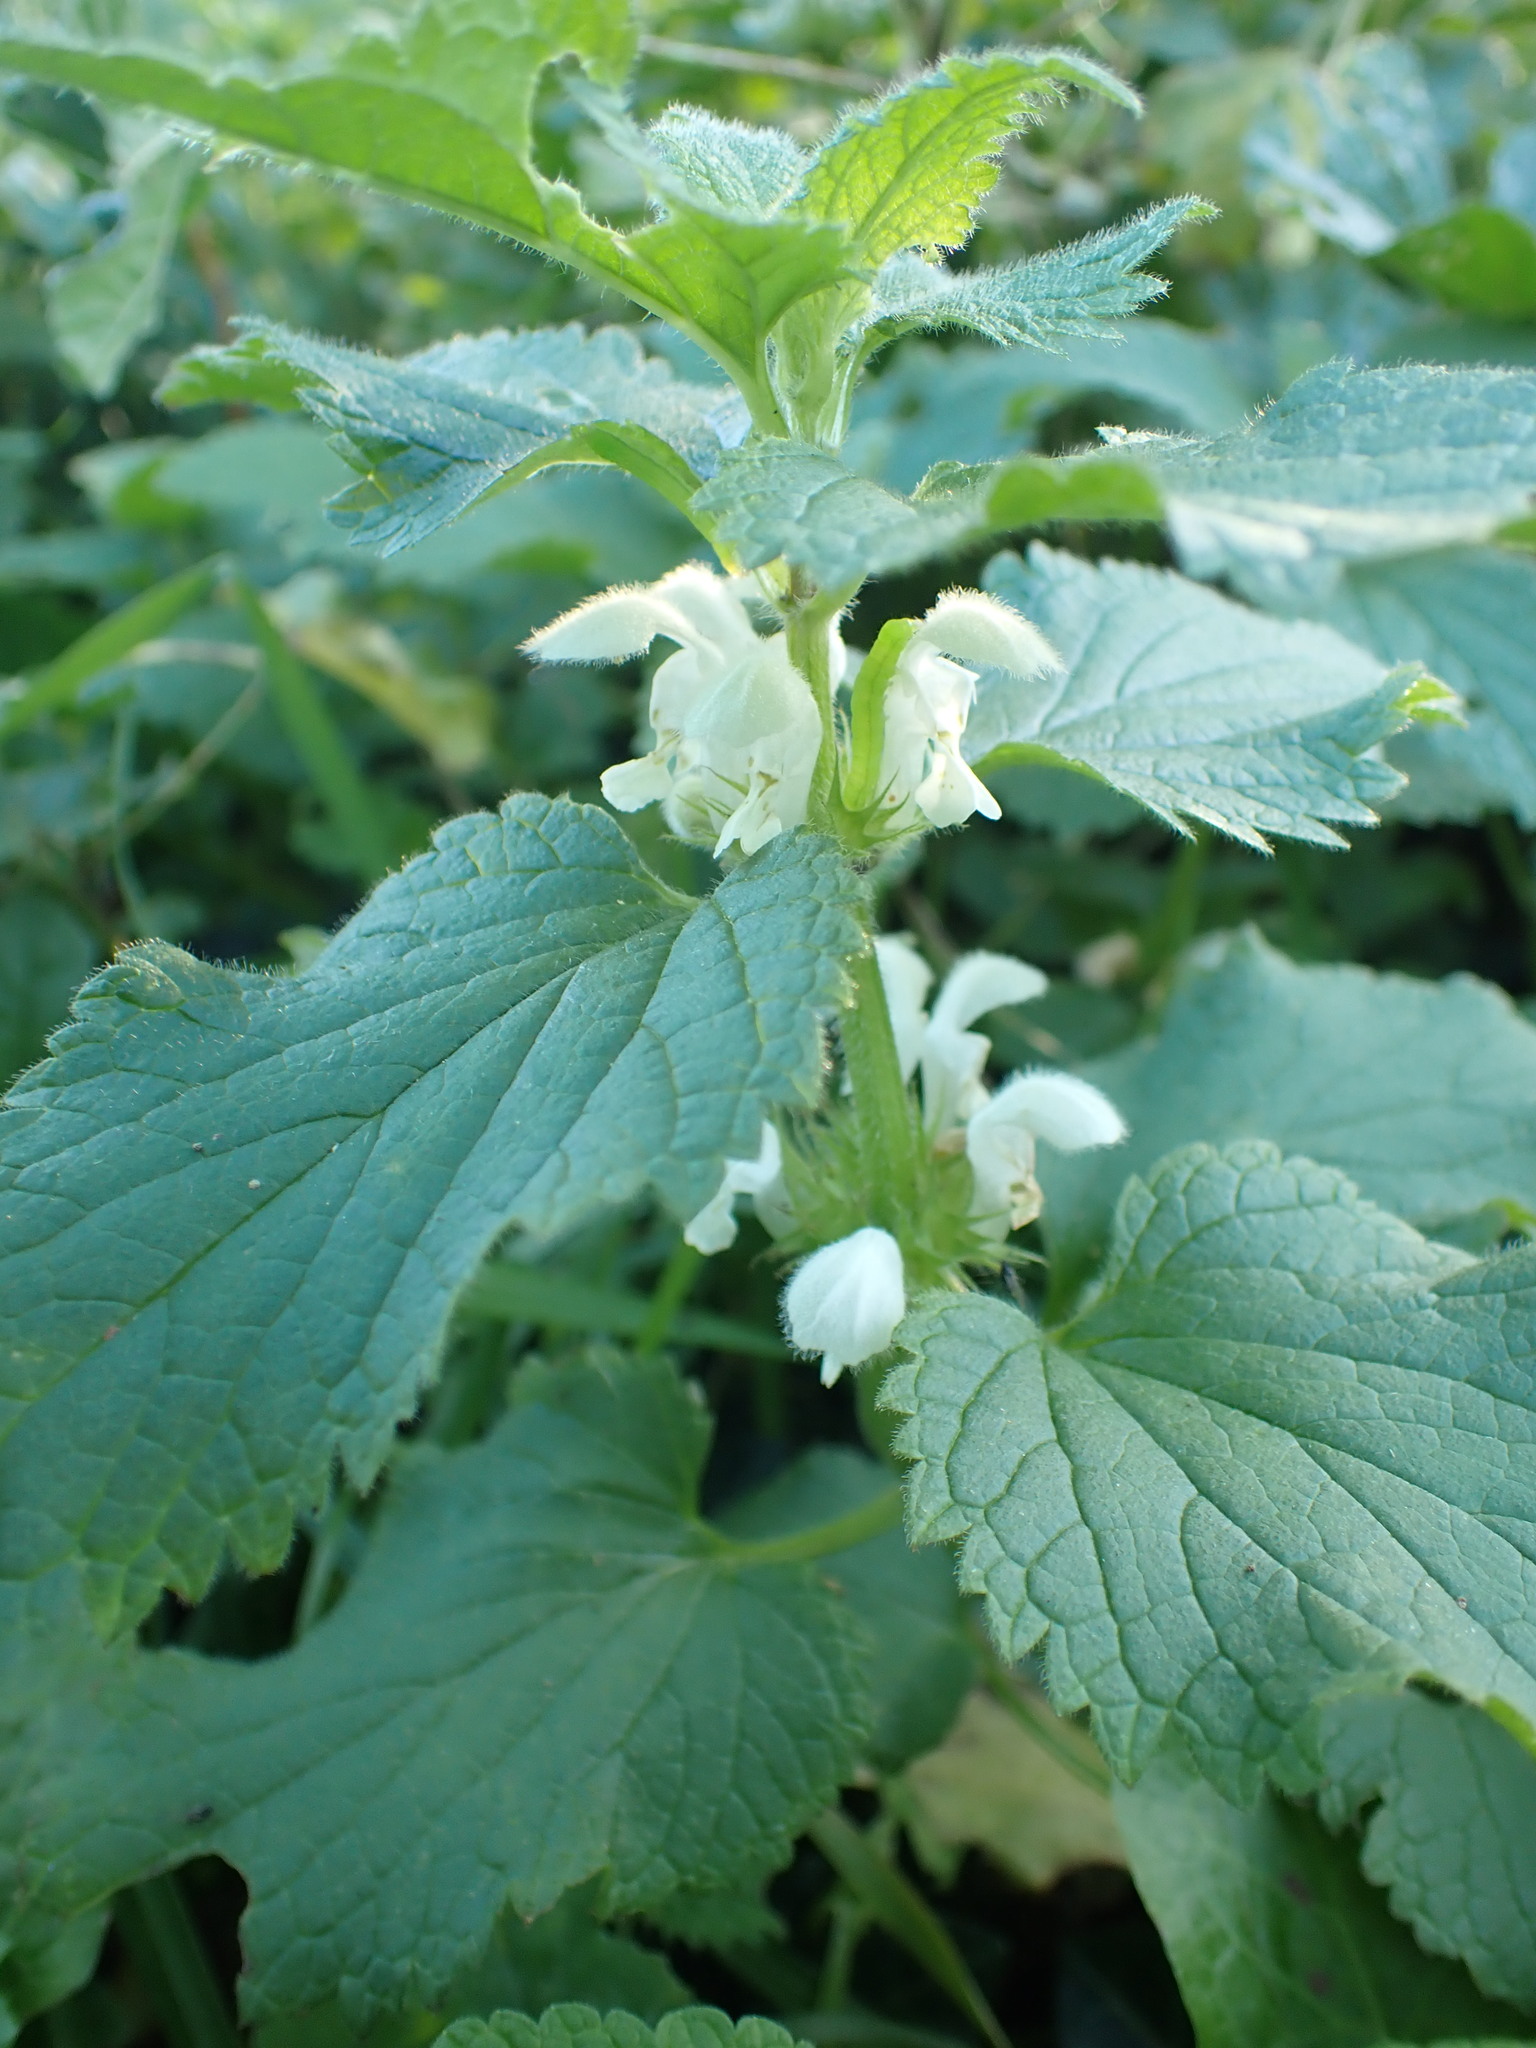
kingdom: Plantae
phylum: Tracheophyta
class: Magnoliopsida
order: Lamiales
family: Lamiaceae
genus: Lamium
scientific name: Lamium album
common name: White dead-nettle
